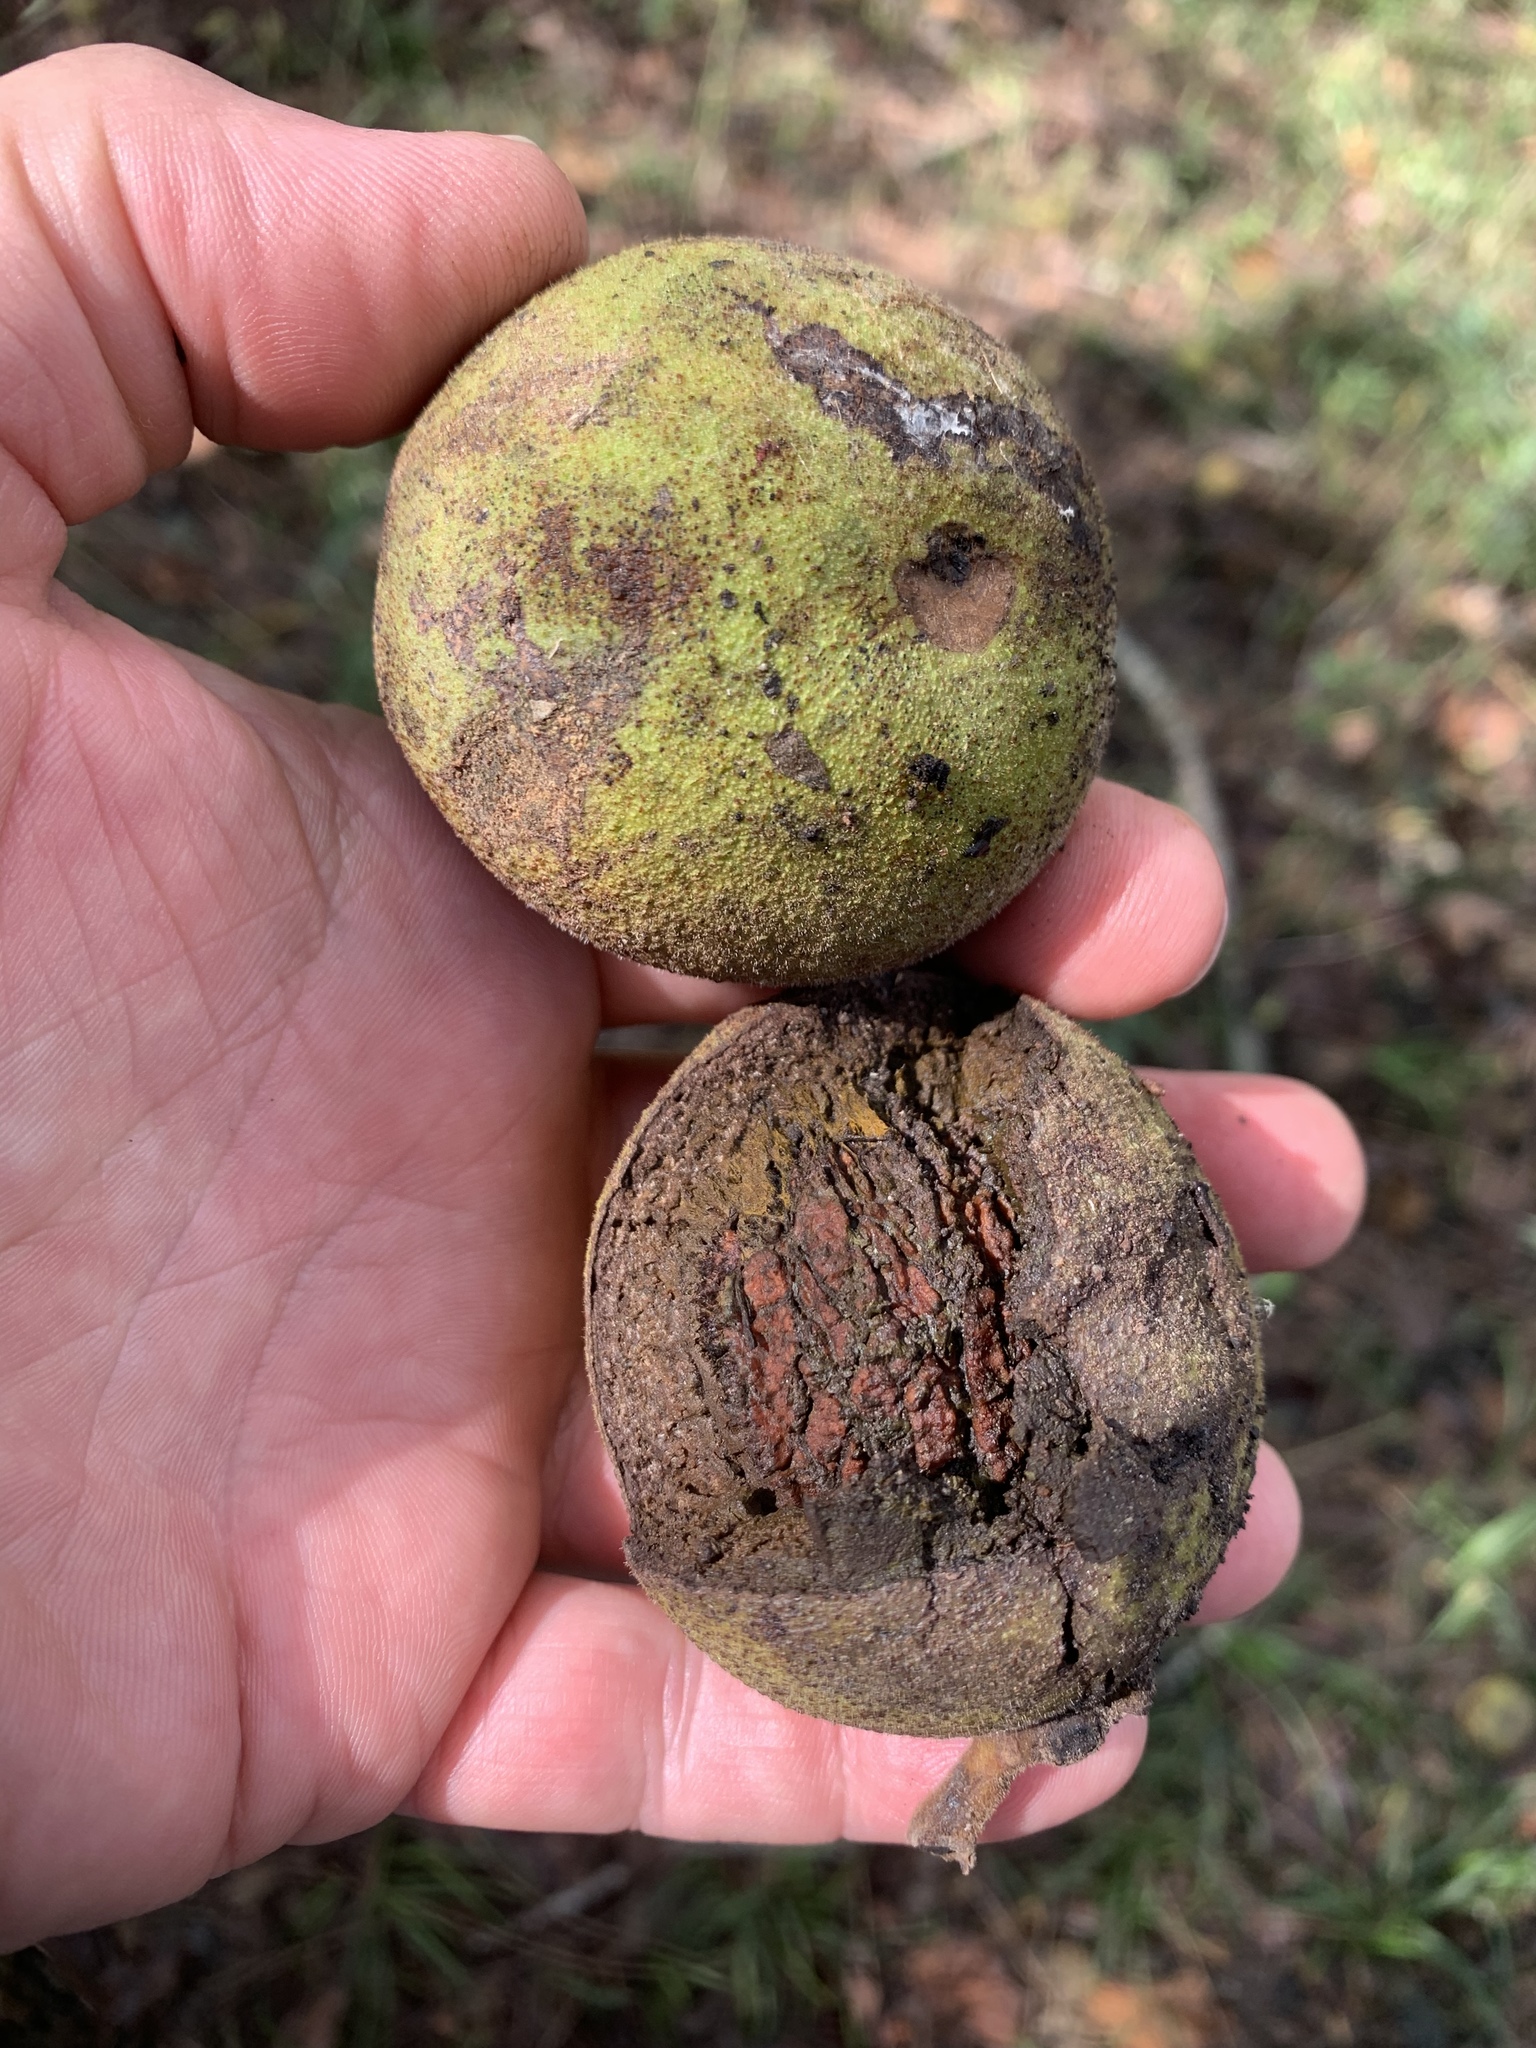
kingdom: Plantae
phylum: Tracheophyta
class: Magnoliopsida
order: Fagales
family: Juglandaceae
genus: Juglans
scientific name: Juglans nigra
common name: Black walnut
